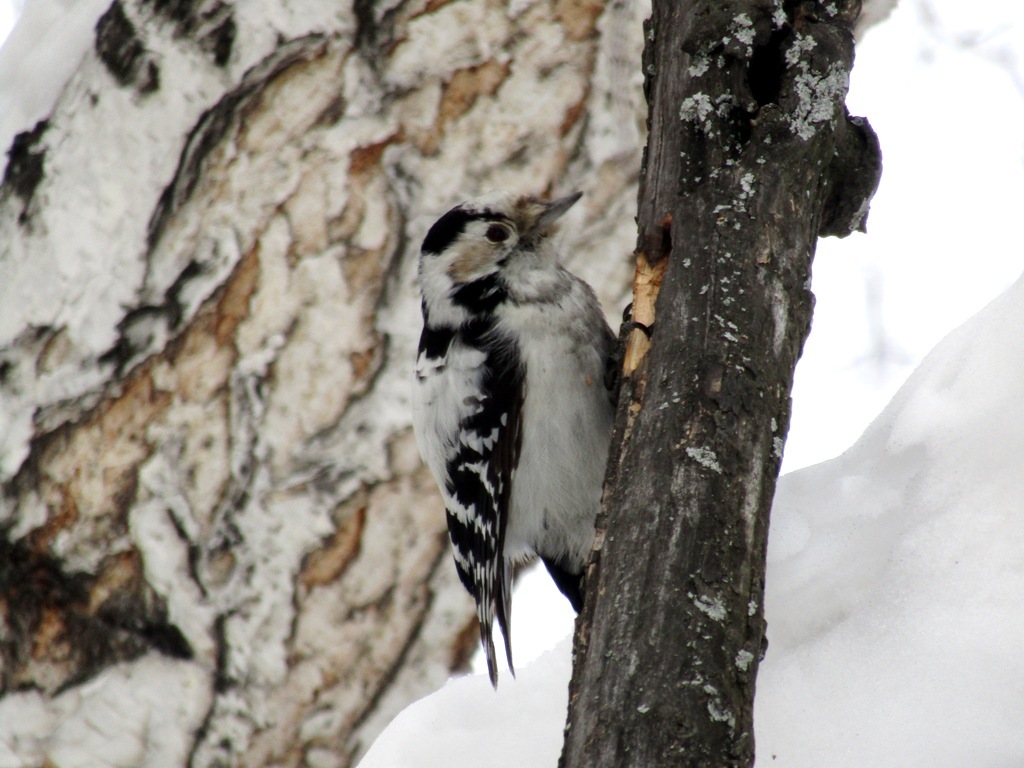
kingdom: Animalia
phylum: Chordata
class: Aves
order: Piciformes
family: Picidae
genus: Dryobates
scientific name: Dryobates minor
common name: Lesser spotted woodpecker
